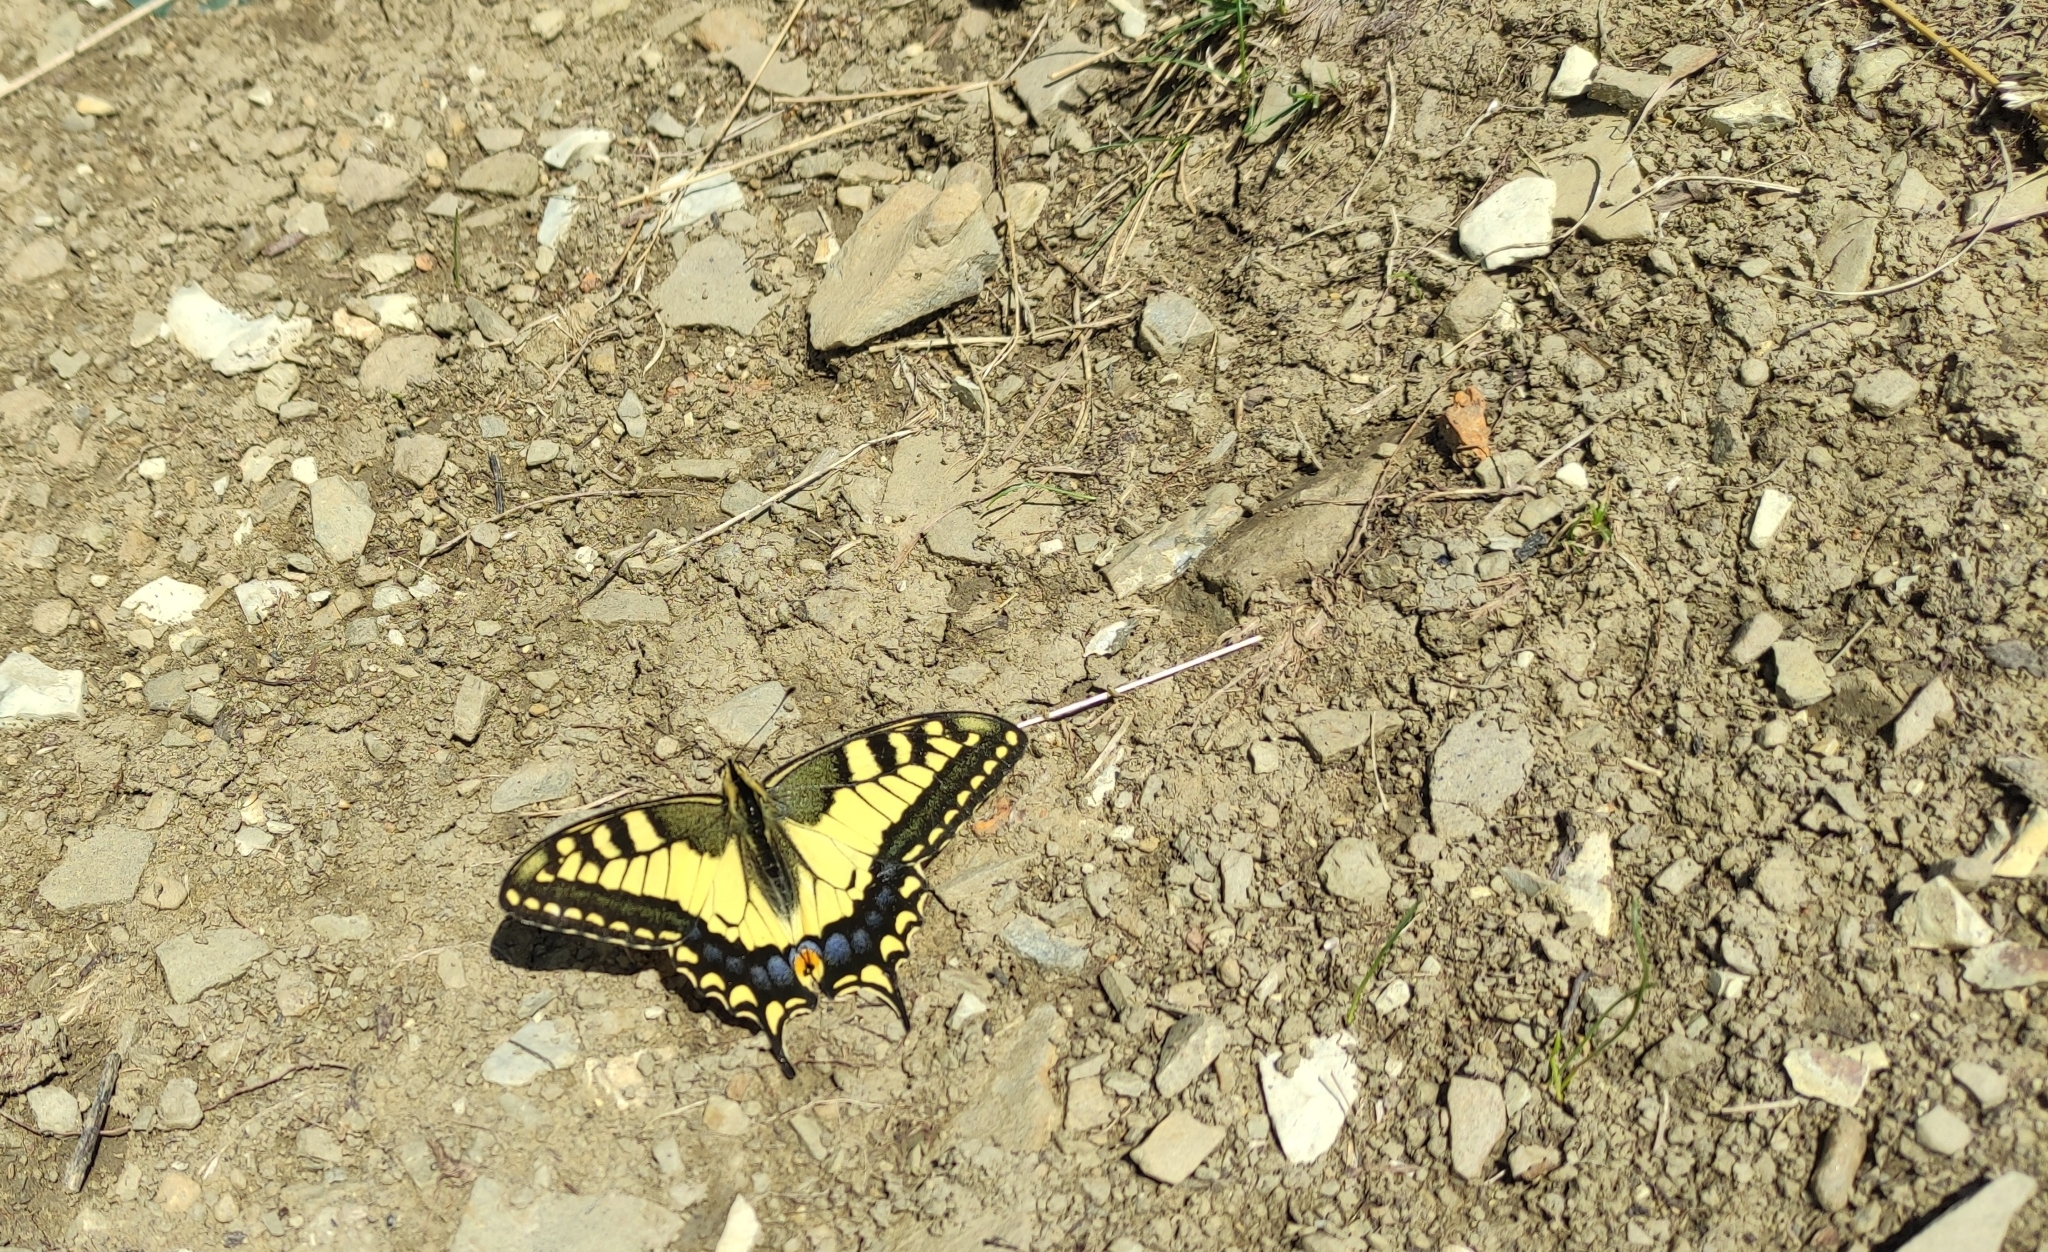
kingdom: Animalia
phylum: Arthropoda
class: Insecta
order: Lepidoptera
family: Papilionidae
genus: Papilio
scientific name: Papilio machaon
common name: Swallowtail
